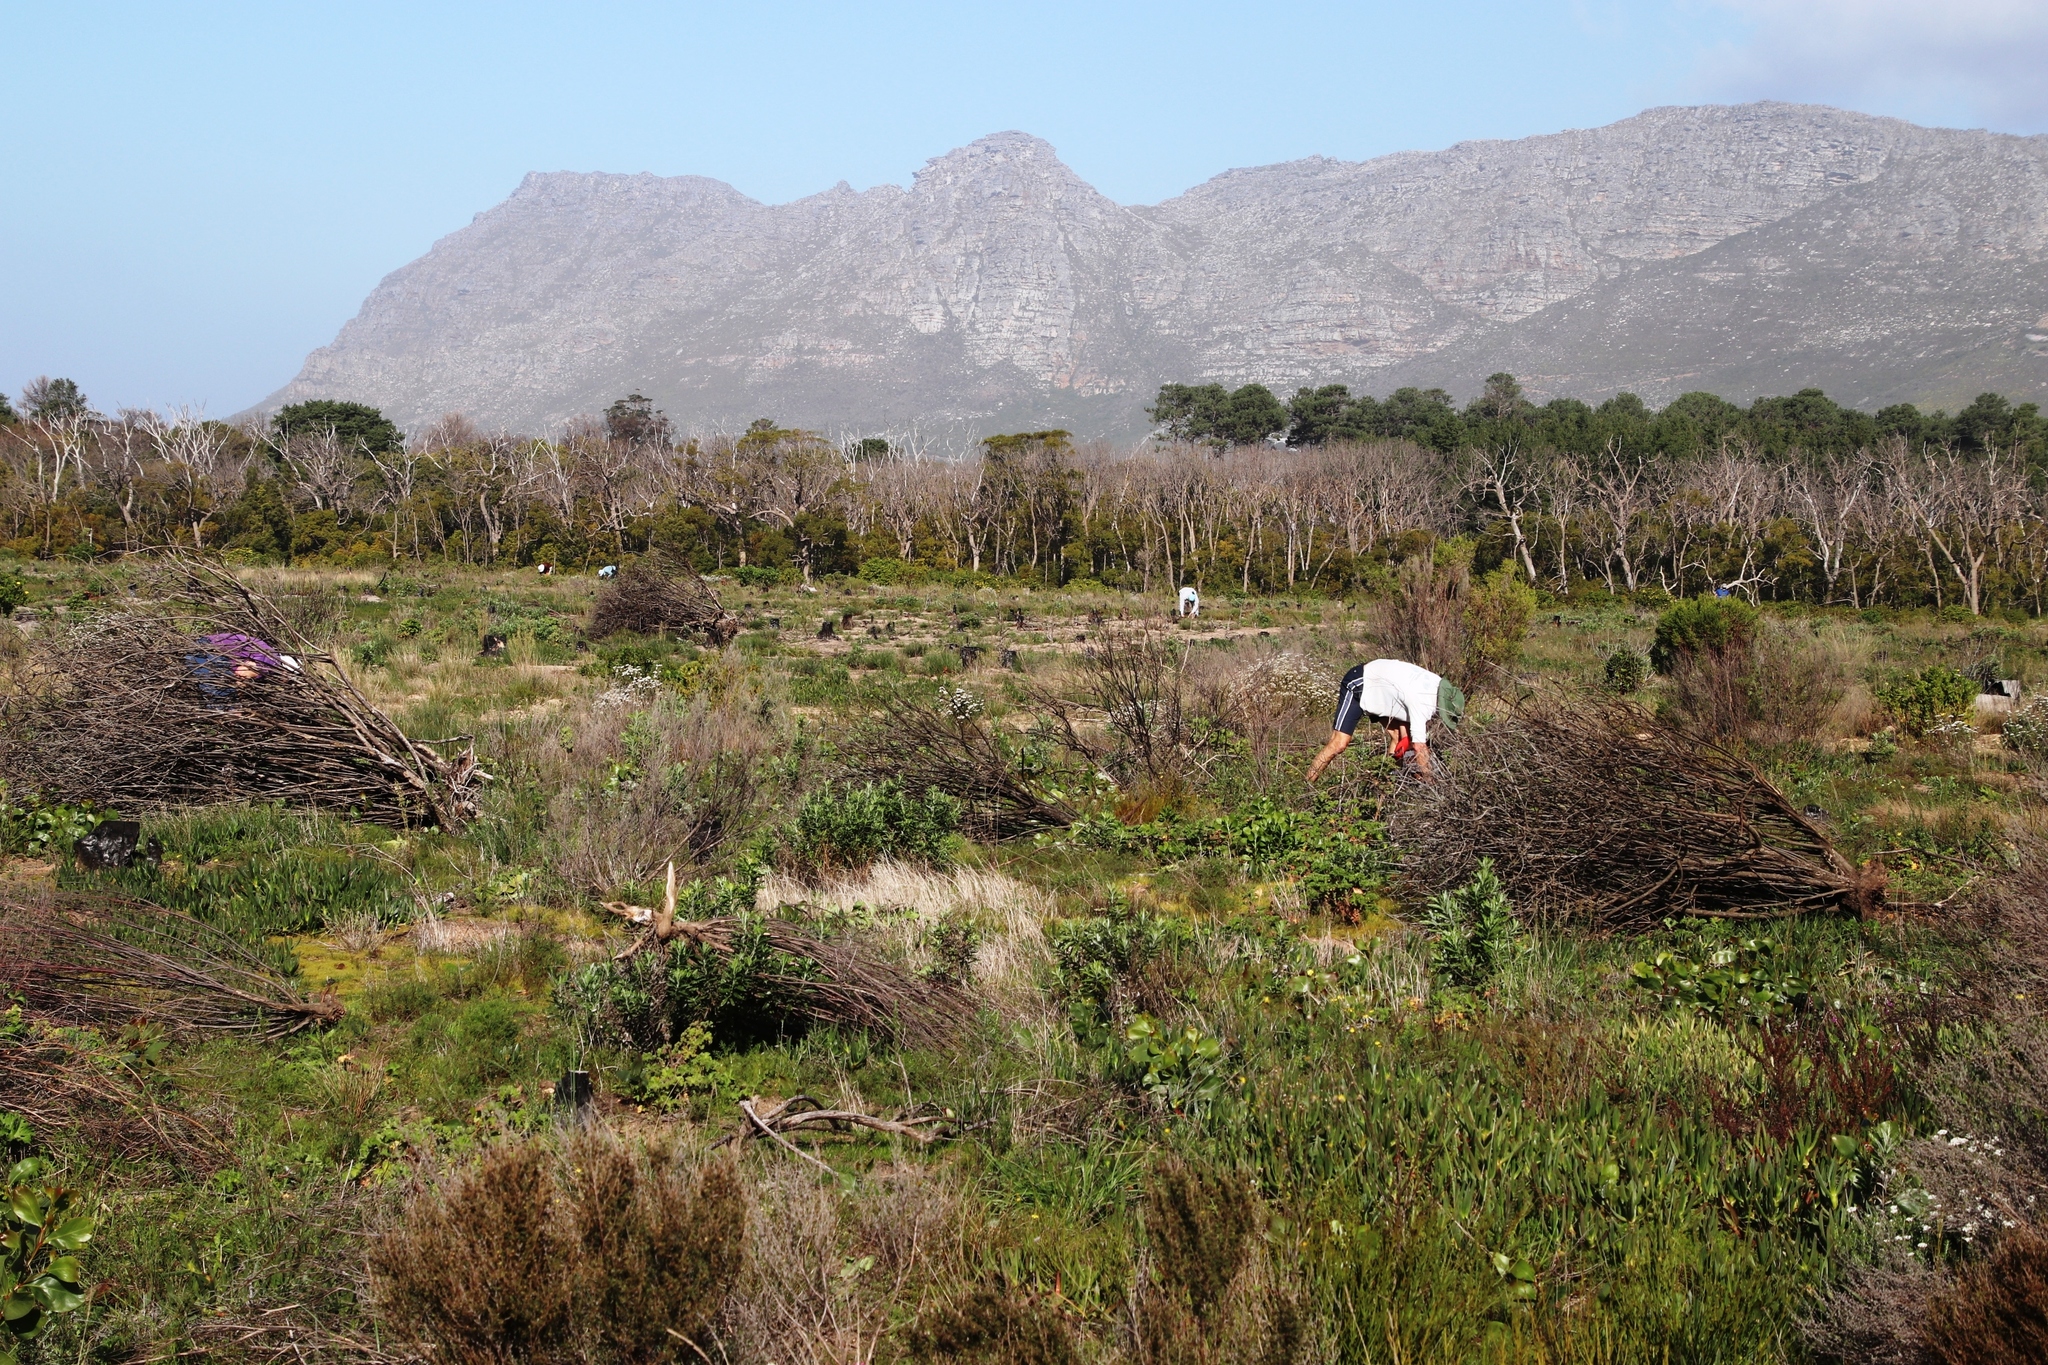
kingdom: Plantae
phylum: Tracheophyta
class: Magnoliopsida
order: Caryophyllales
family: Aizoaceae
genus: Carpobrotus
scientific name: Carpobrotus edulis
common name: Hottentot-fig
